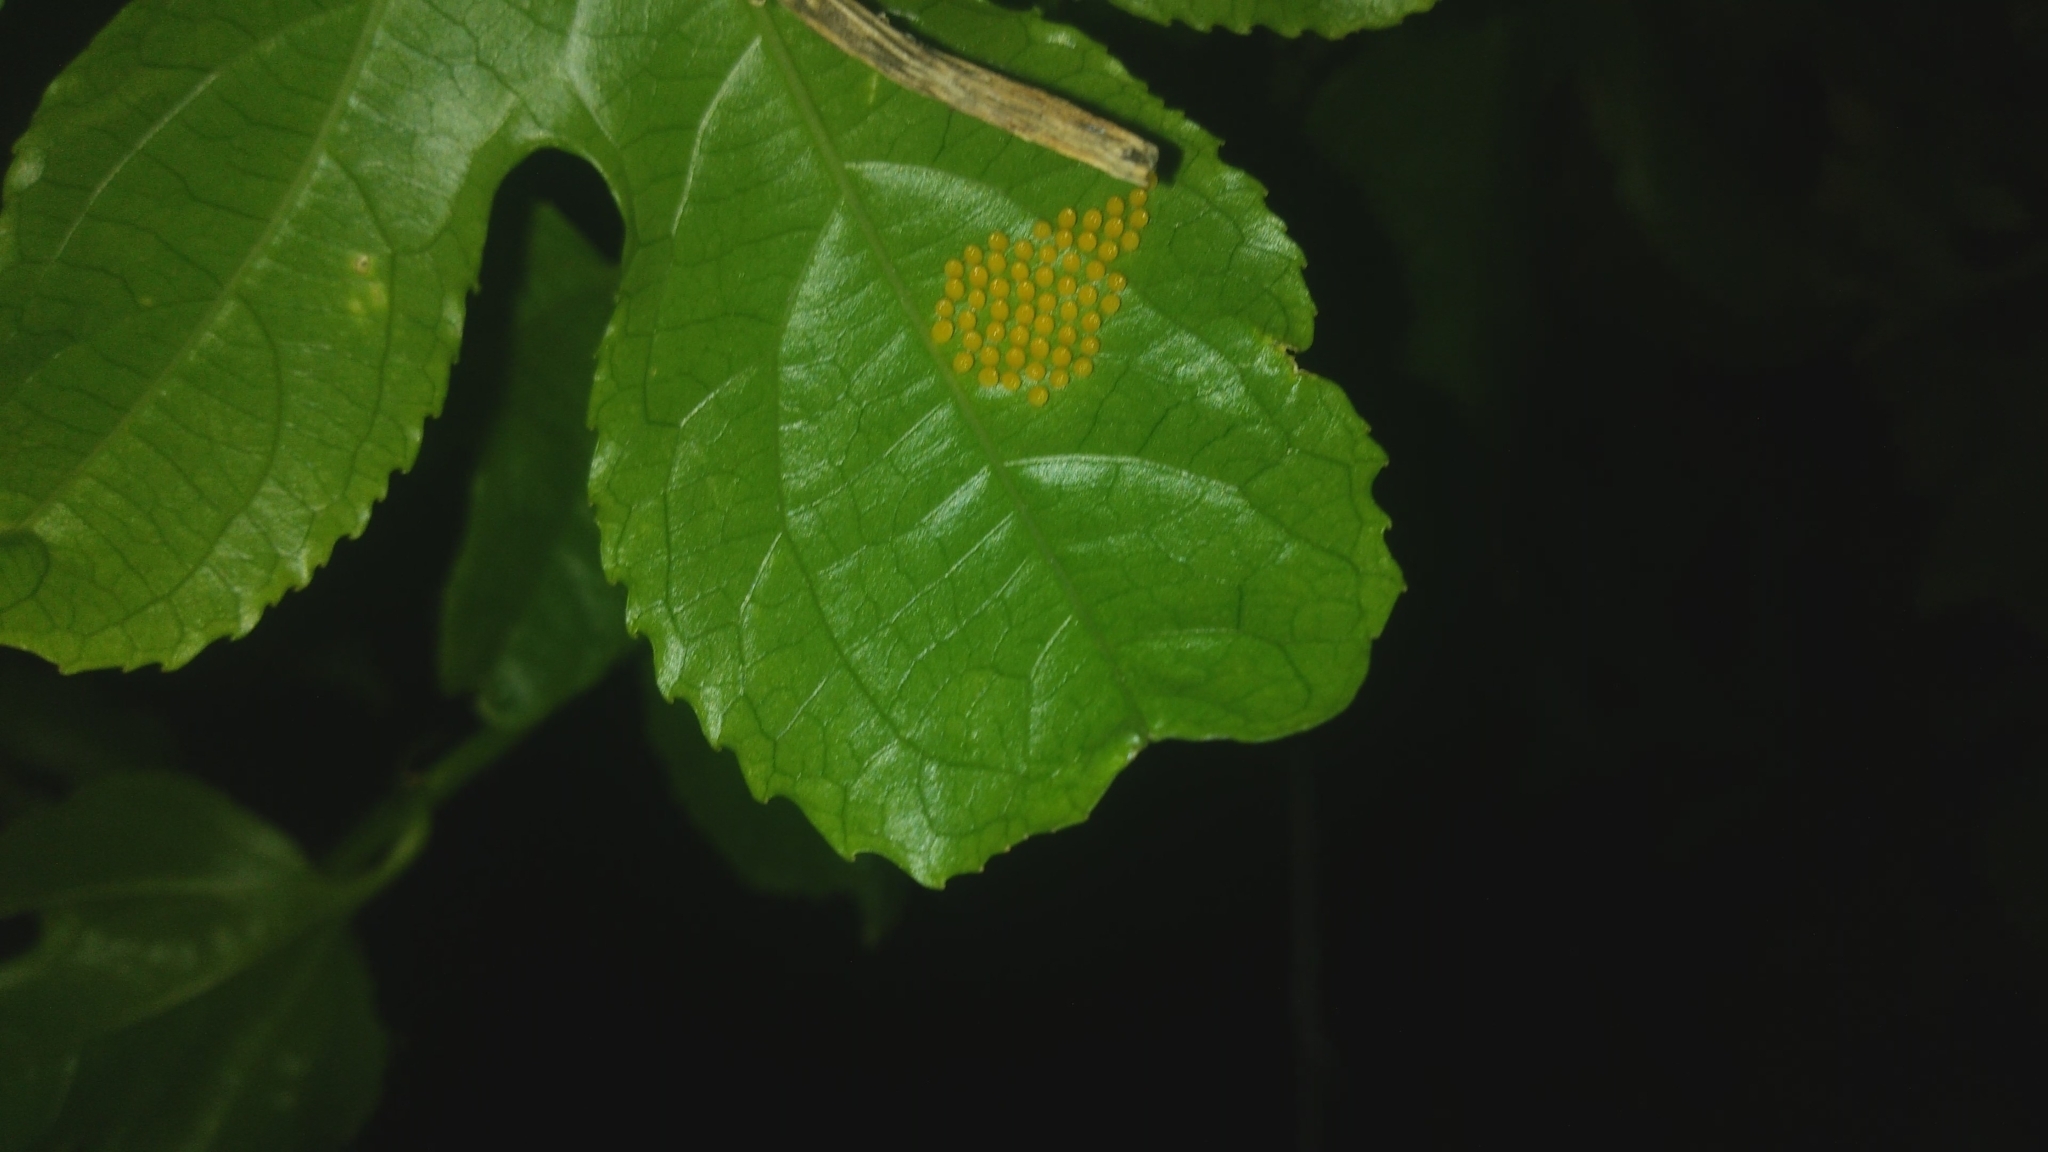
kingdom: Animalia
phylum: Arthropoda
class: Insecta
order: Lepidoptera
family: Nymphalidae
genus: Dione
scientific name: Dione juno
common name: Juno silverspot
